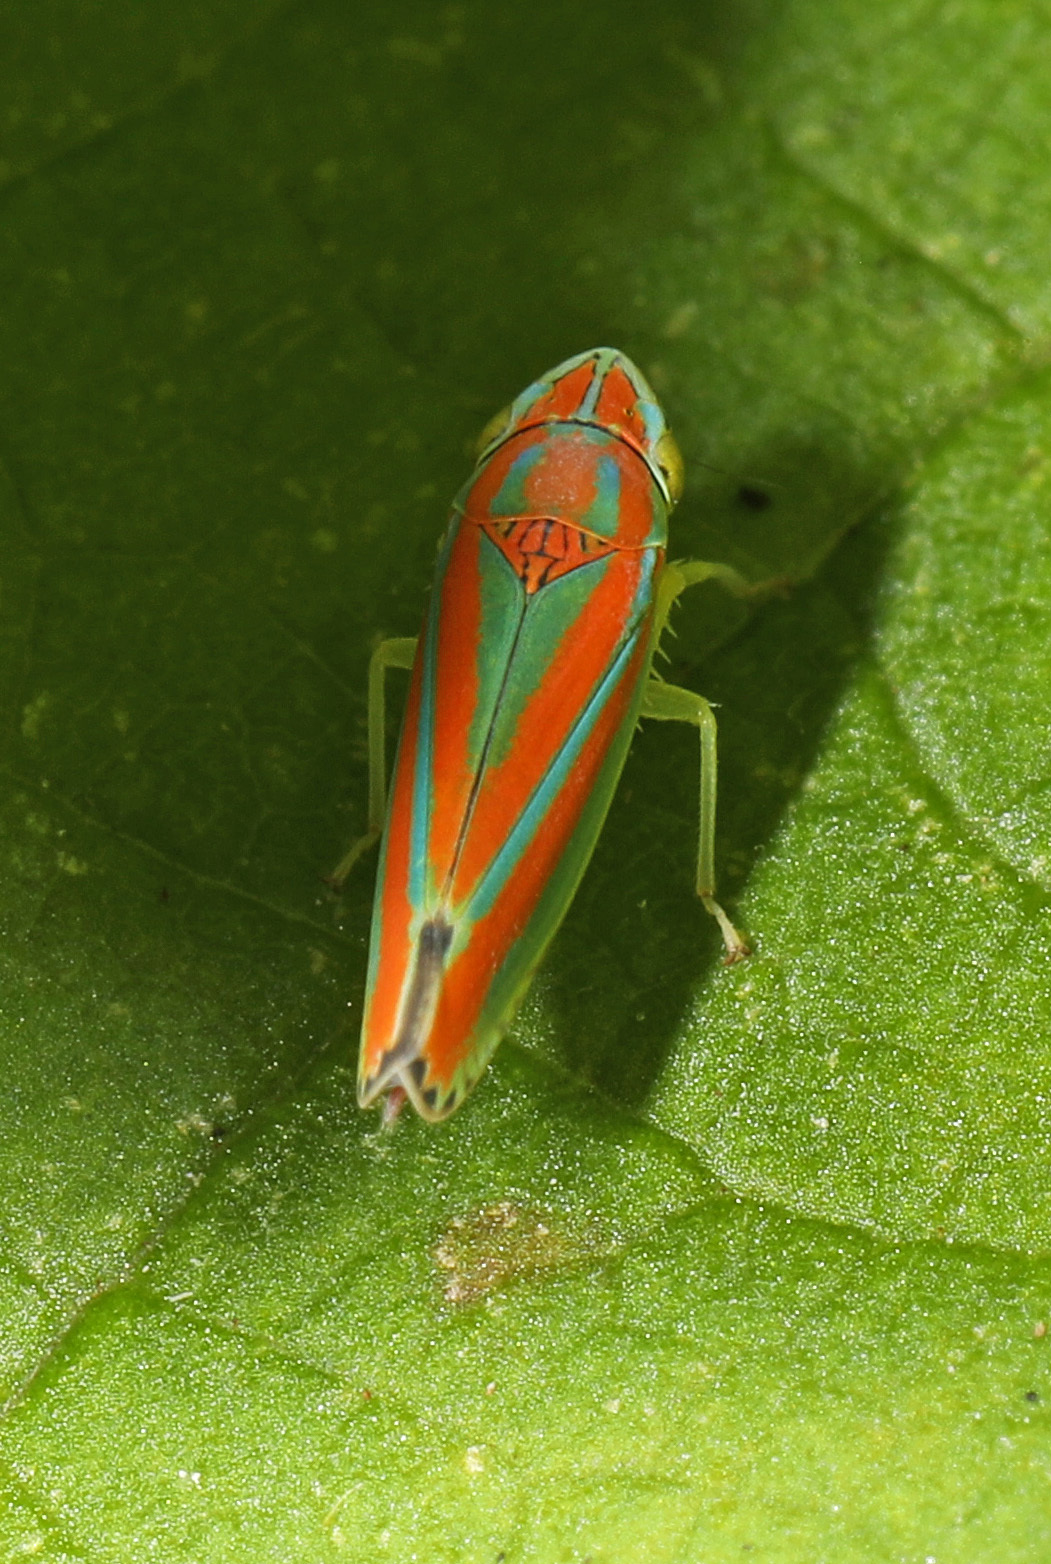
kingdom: Animalia
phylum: Arthropoda
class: Insecta
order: Hemiptera
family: Cicadellidae
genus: Graphocephala
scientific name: Graphocephala versuta
